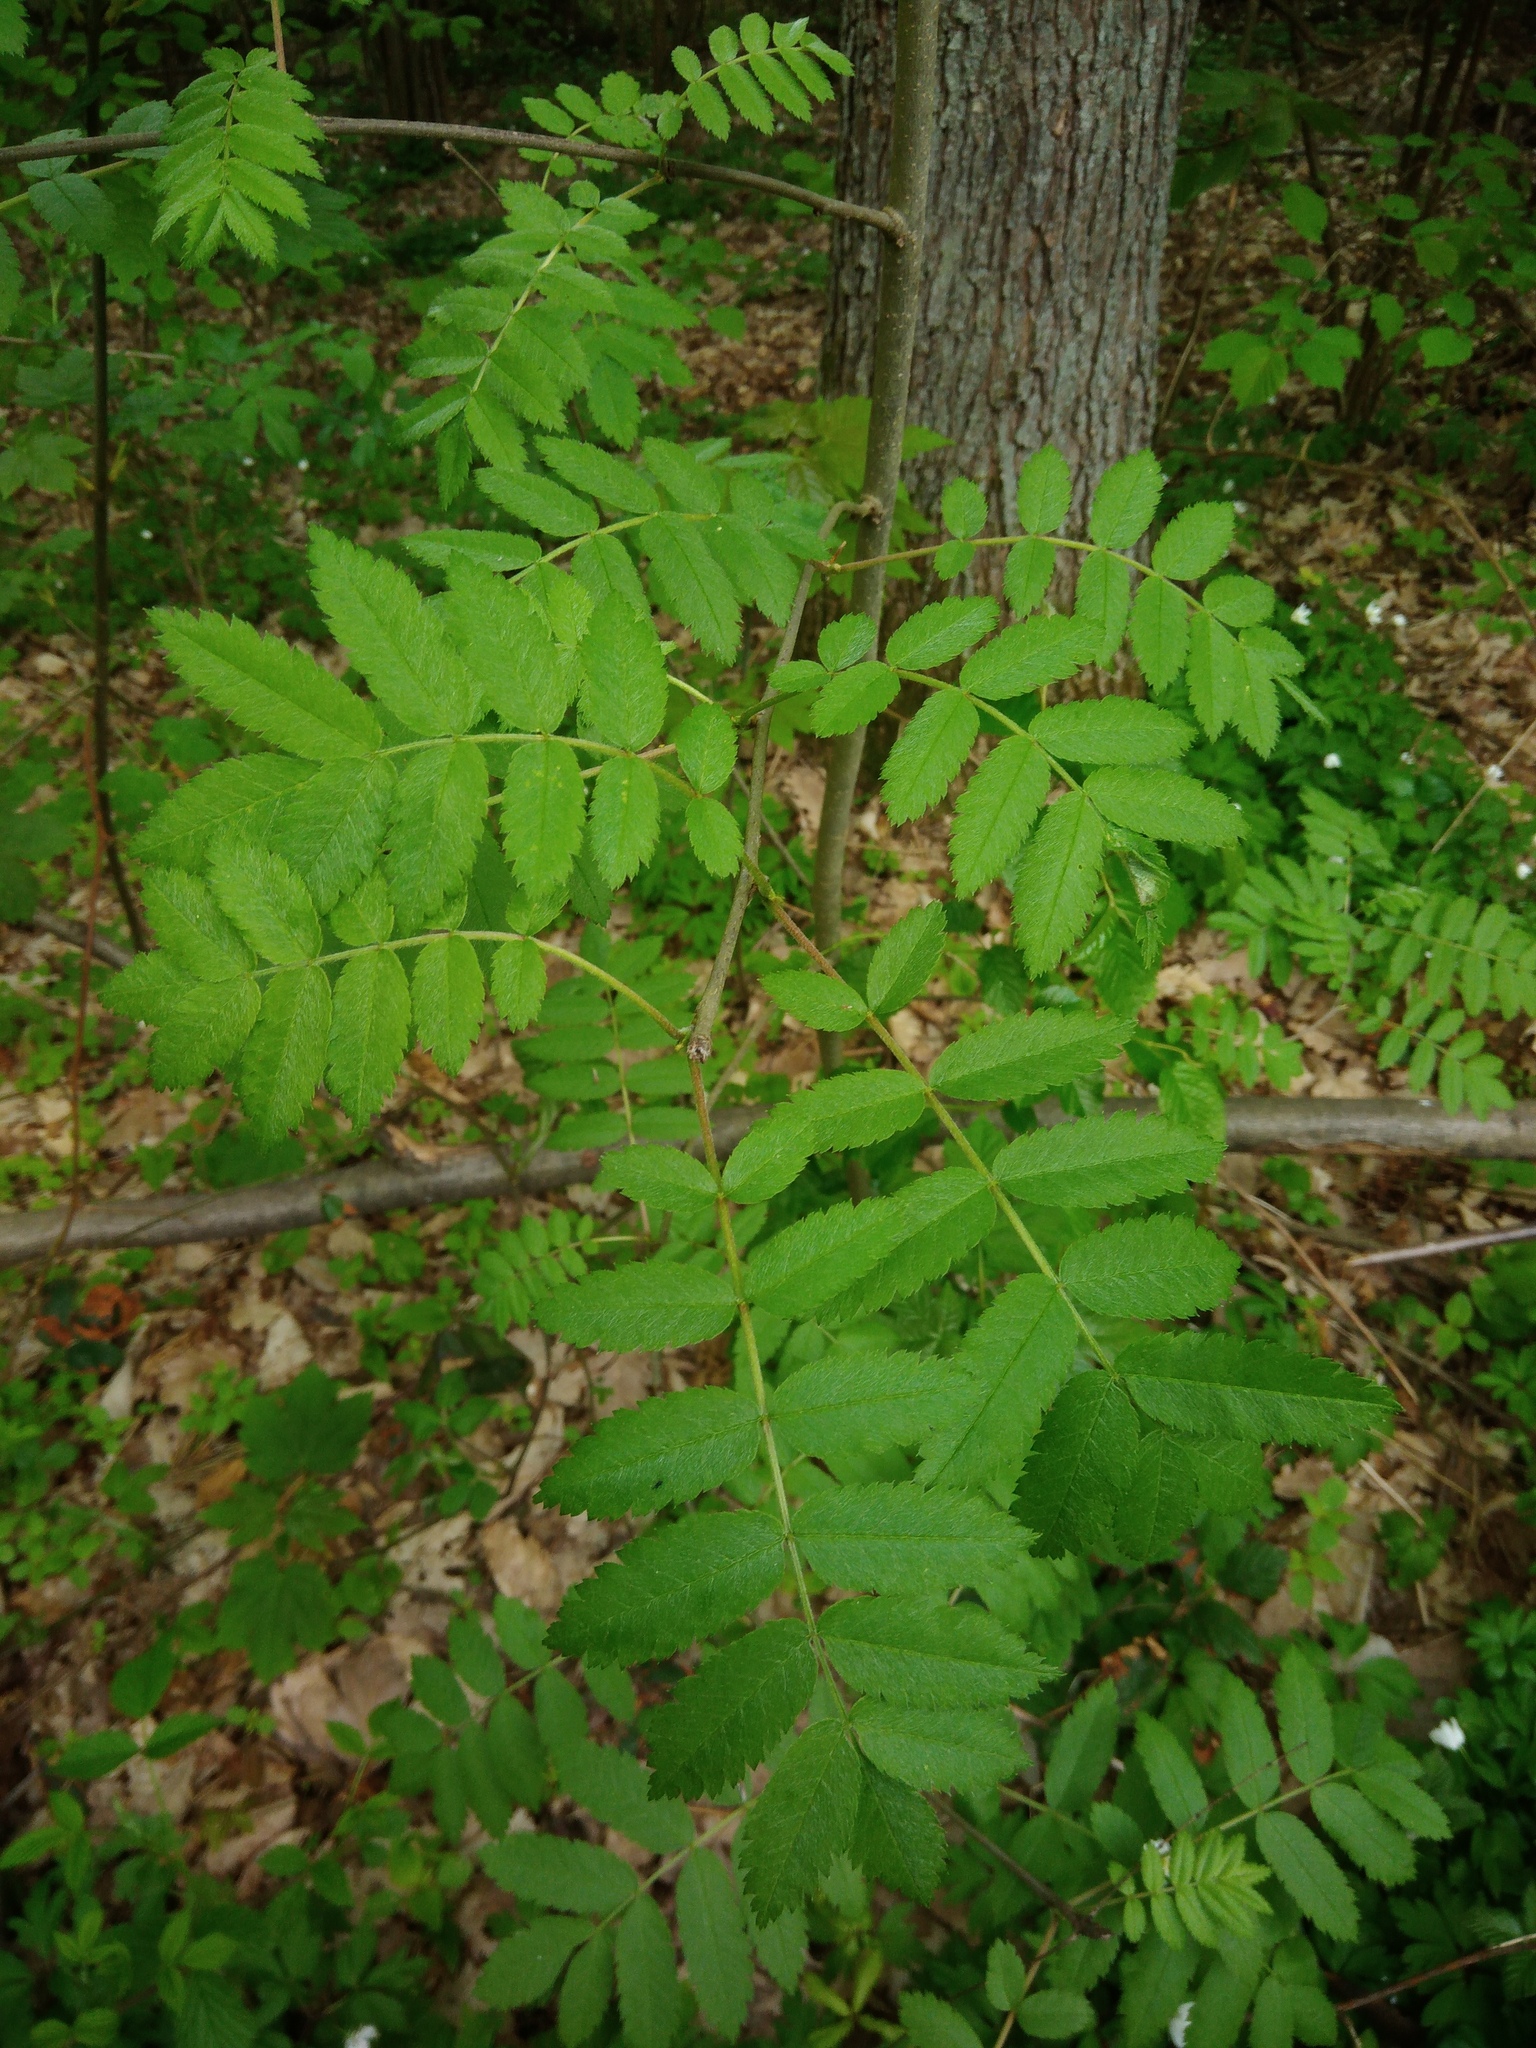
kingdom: Plantae
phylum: Tracheophyta
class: Magnoliopsida
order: Rosales
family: Rosaceae
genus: Sorbus
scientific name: Sorbus aucuparia
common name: Rowan
